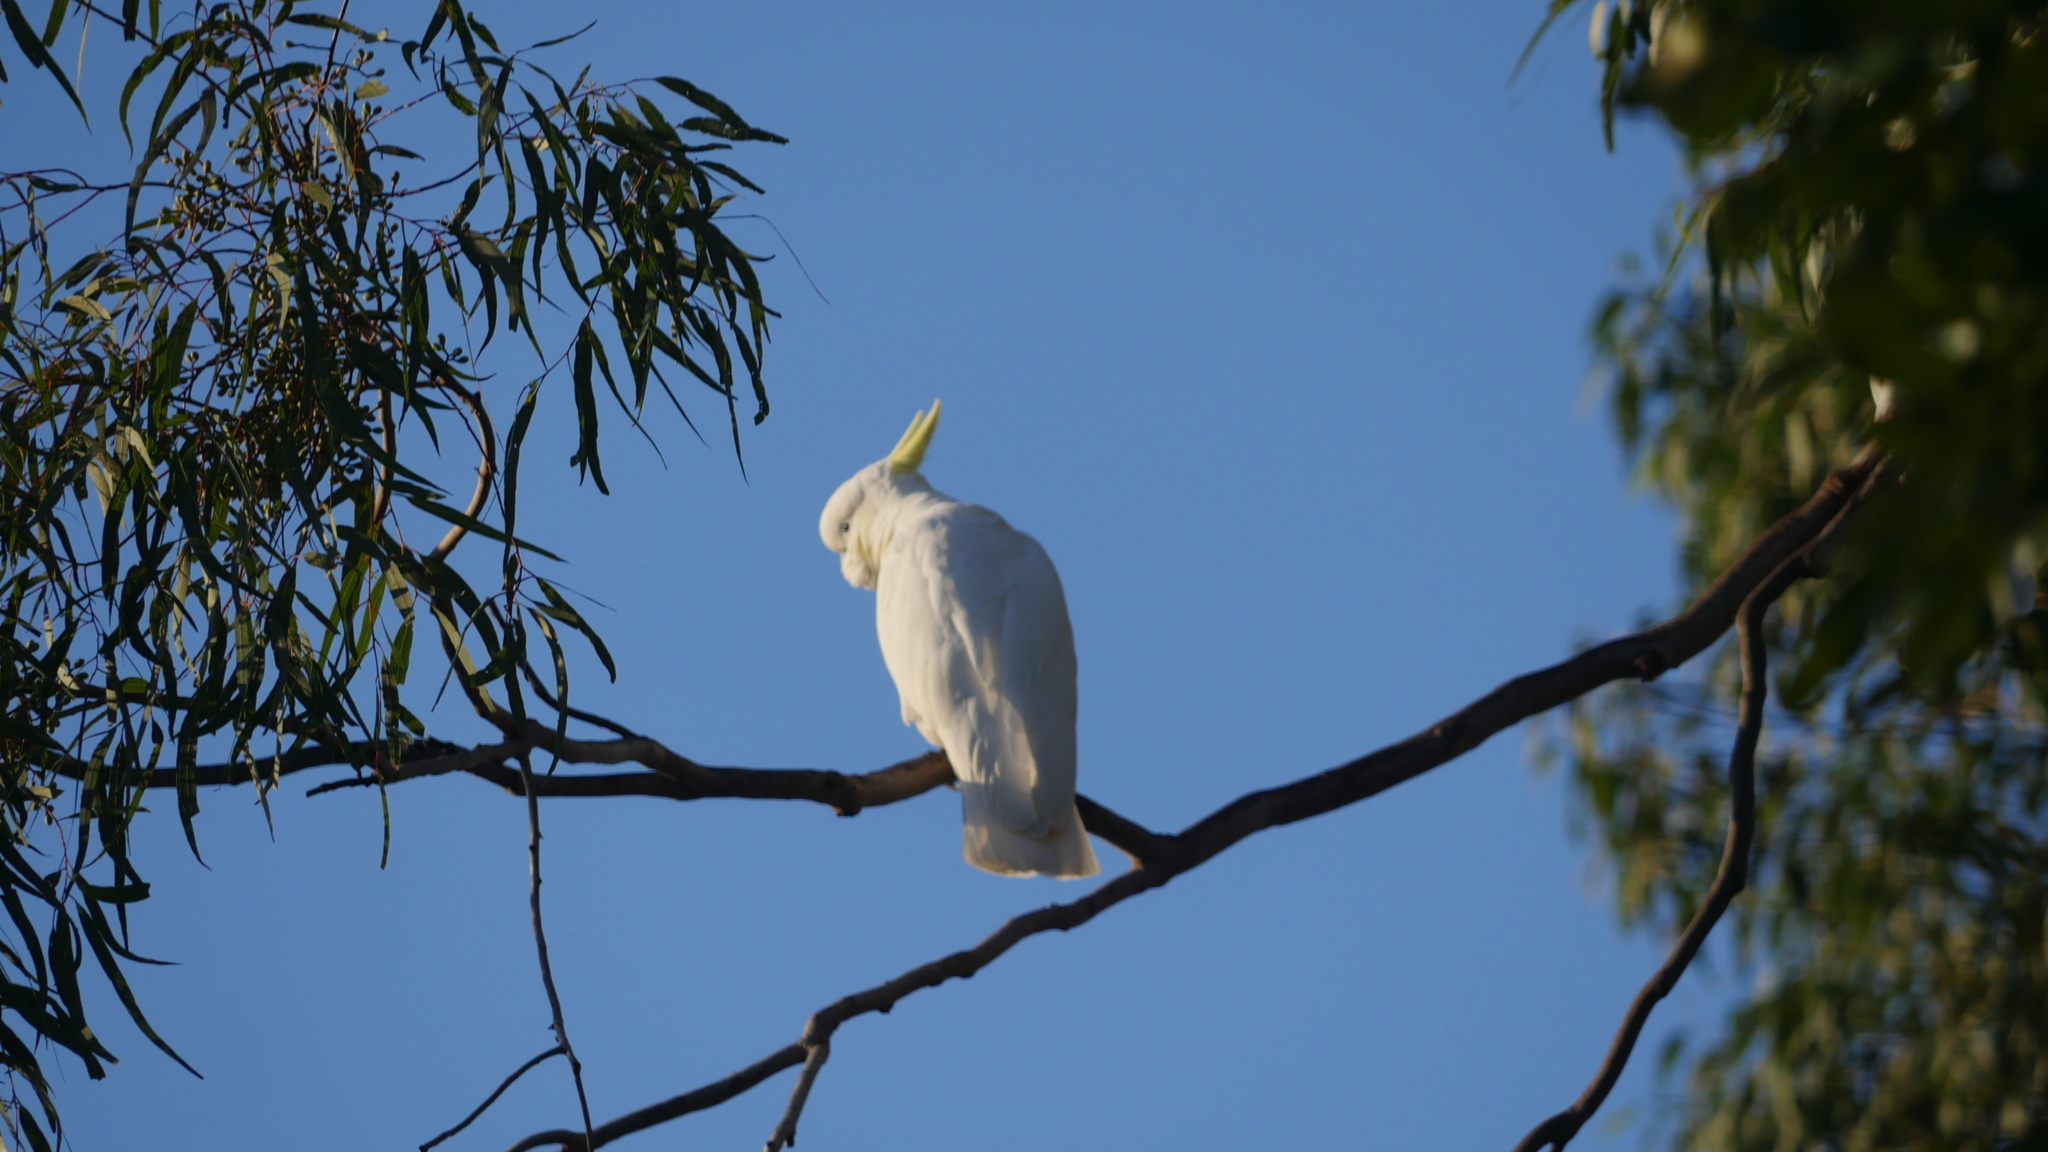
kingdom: Animalia
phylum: Chordata
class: Aves
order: Psittaciformes
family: Psittacidae
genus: Cacatua
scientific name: Cacatua galerita
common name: Sulphur-crested cockatoo
